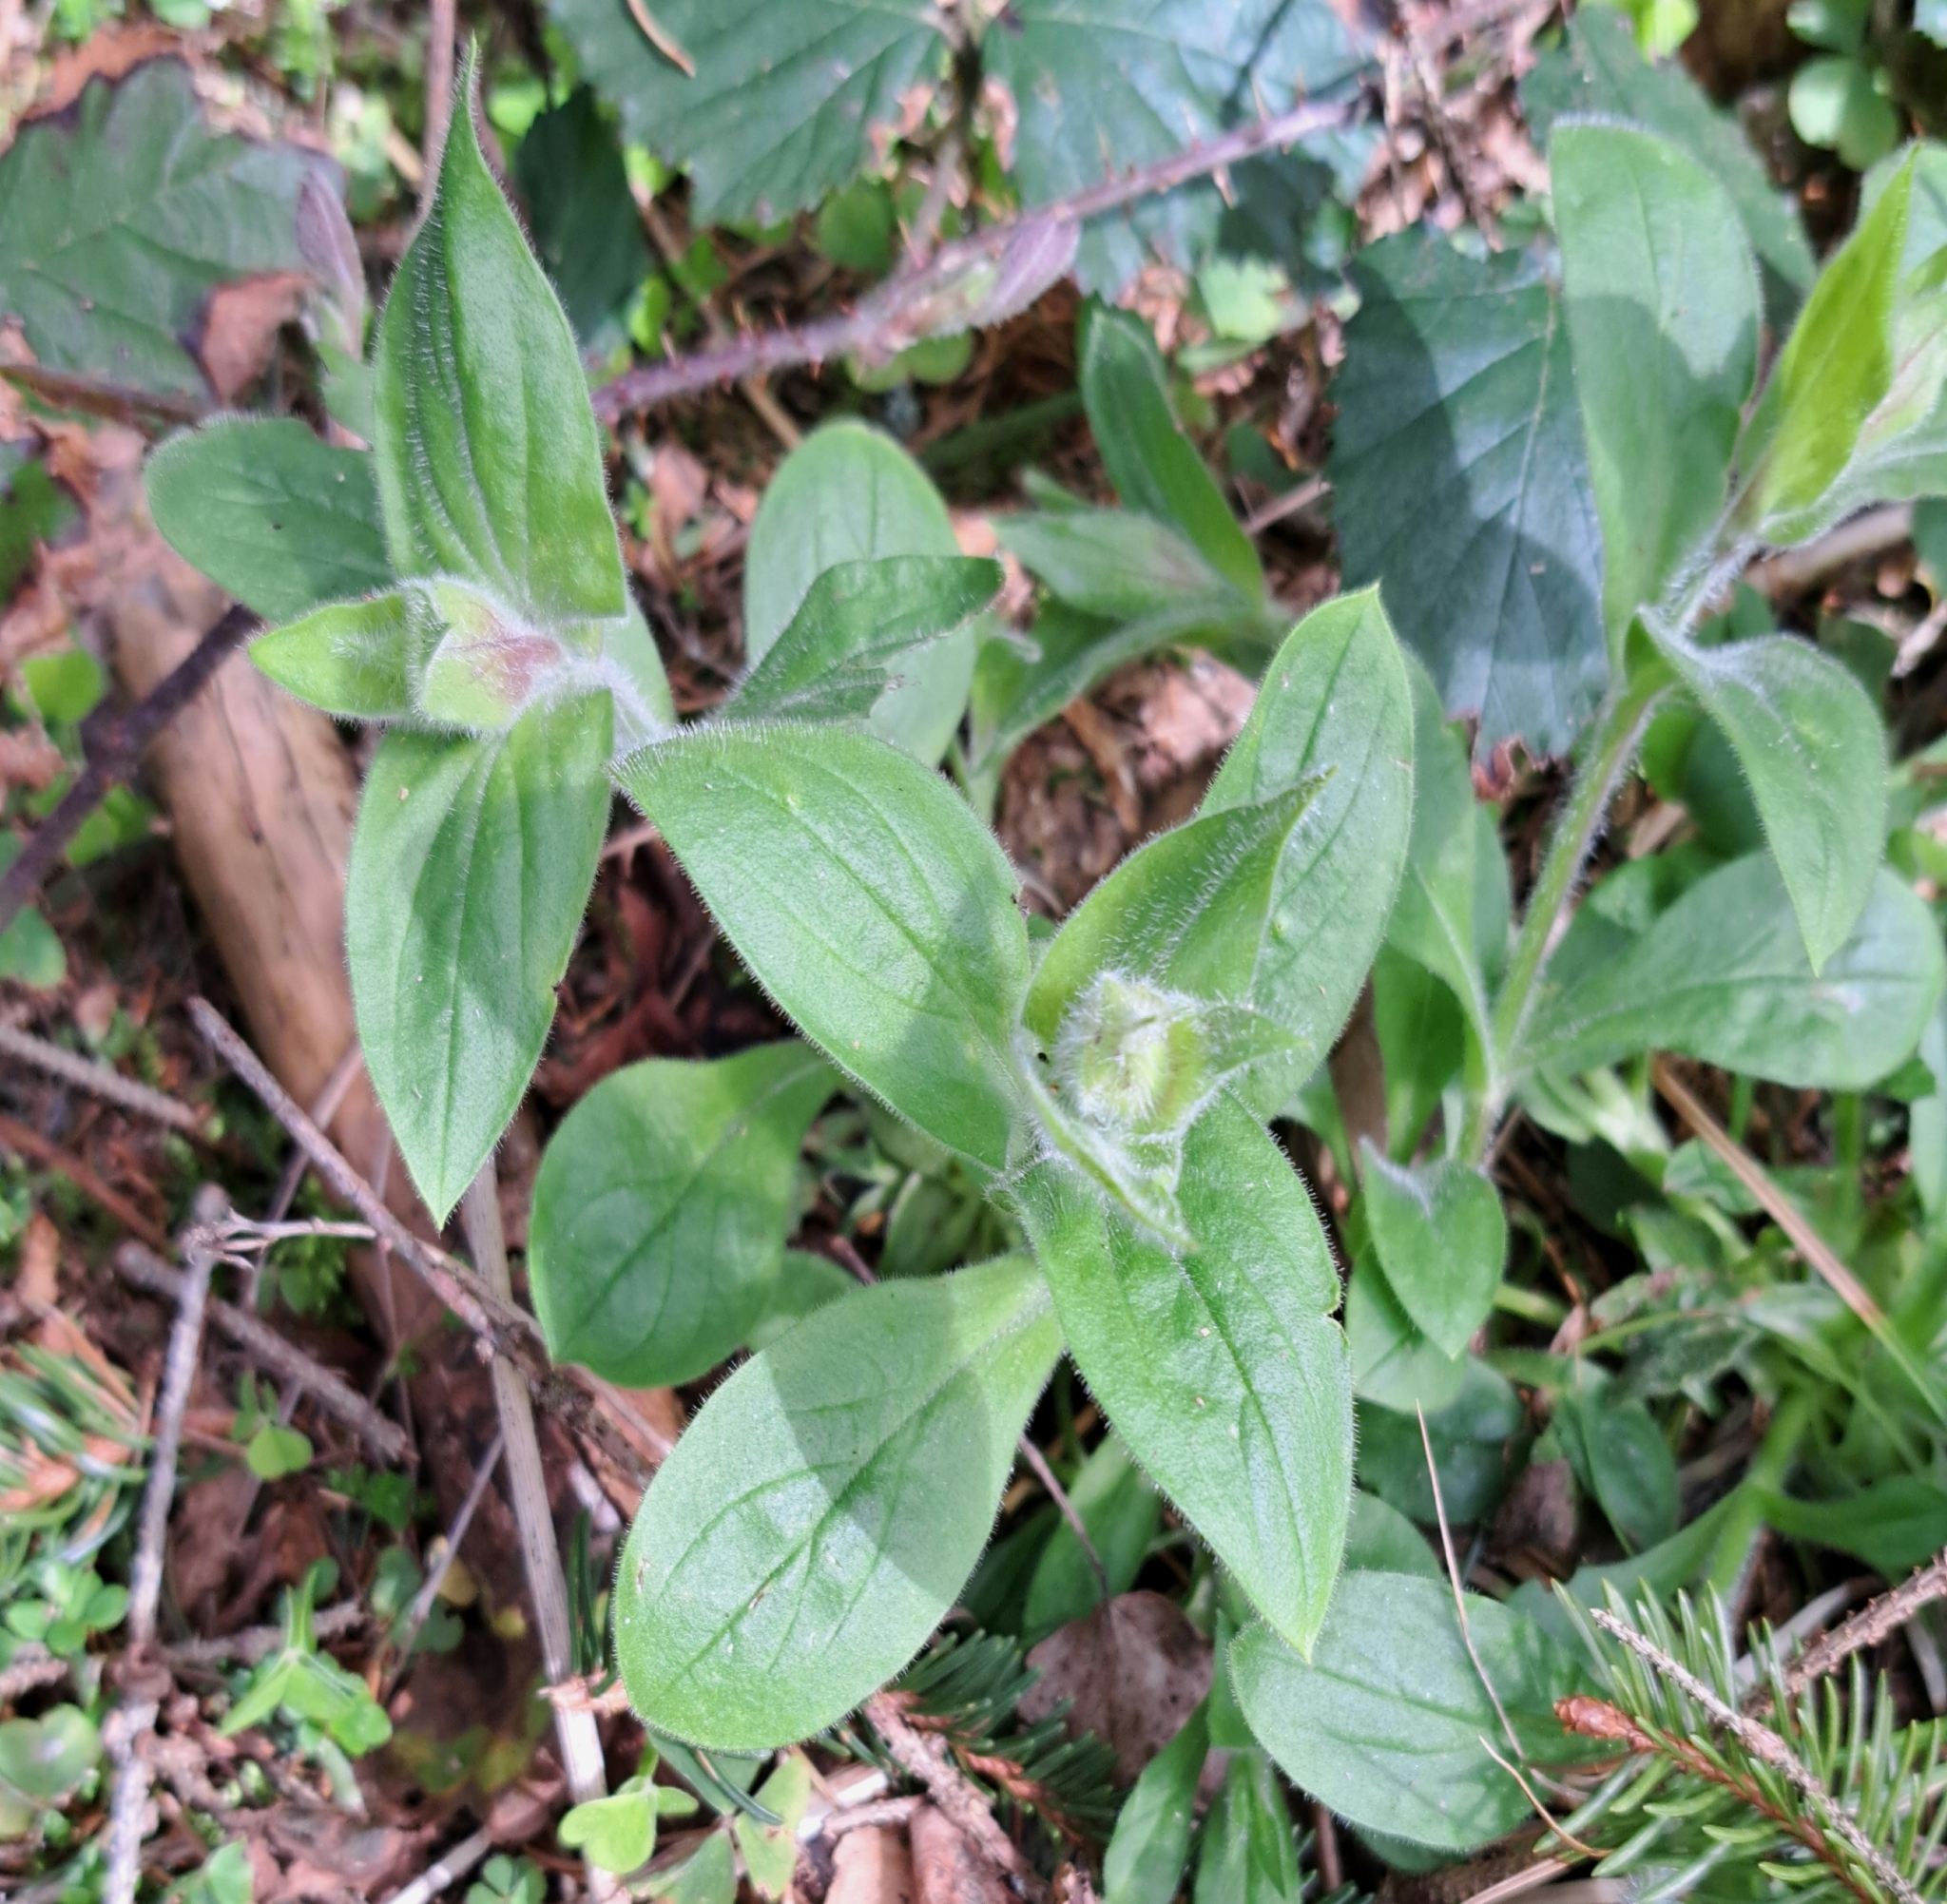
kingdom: Plantae
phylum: Tracheophyta
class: Magnoliopsida
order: Caryophyllales
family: Caryophyllaceae
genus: Silene
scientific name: Silene dioica
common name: Red campion
